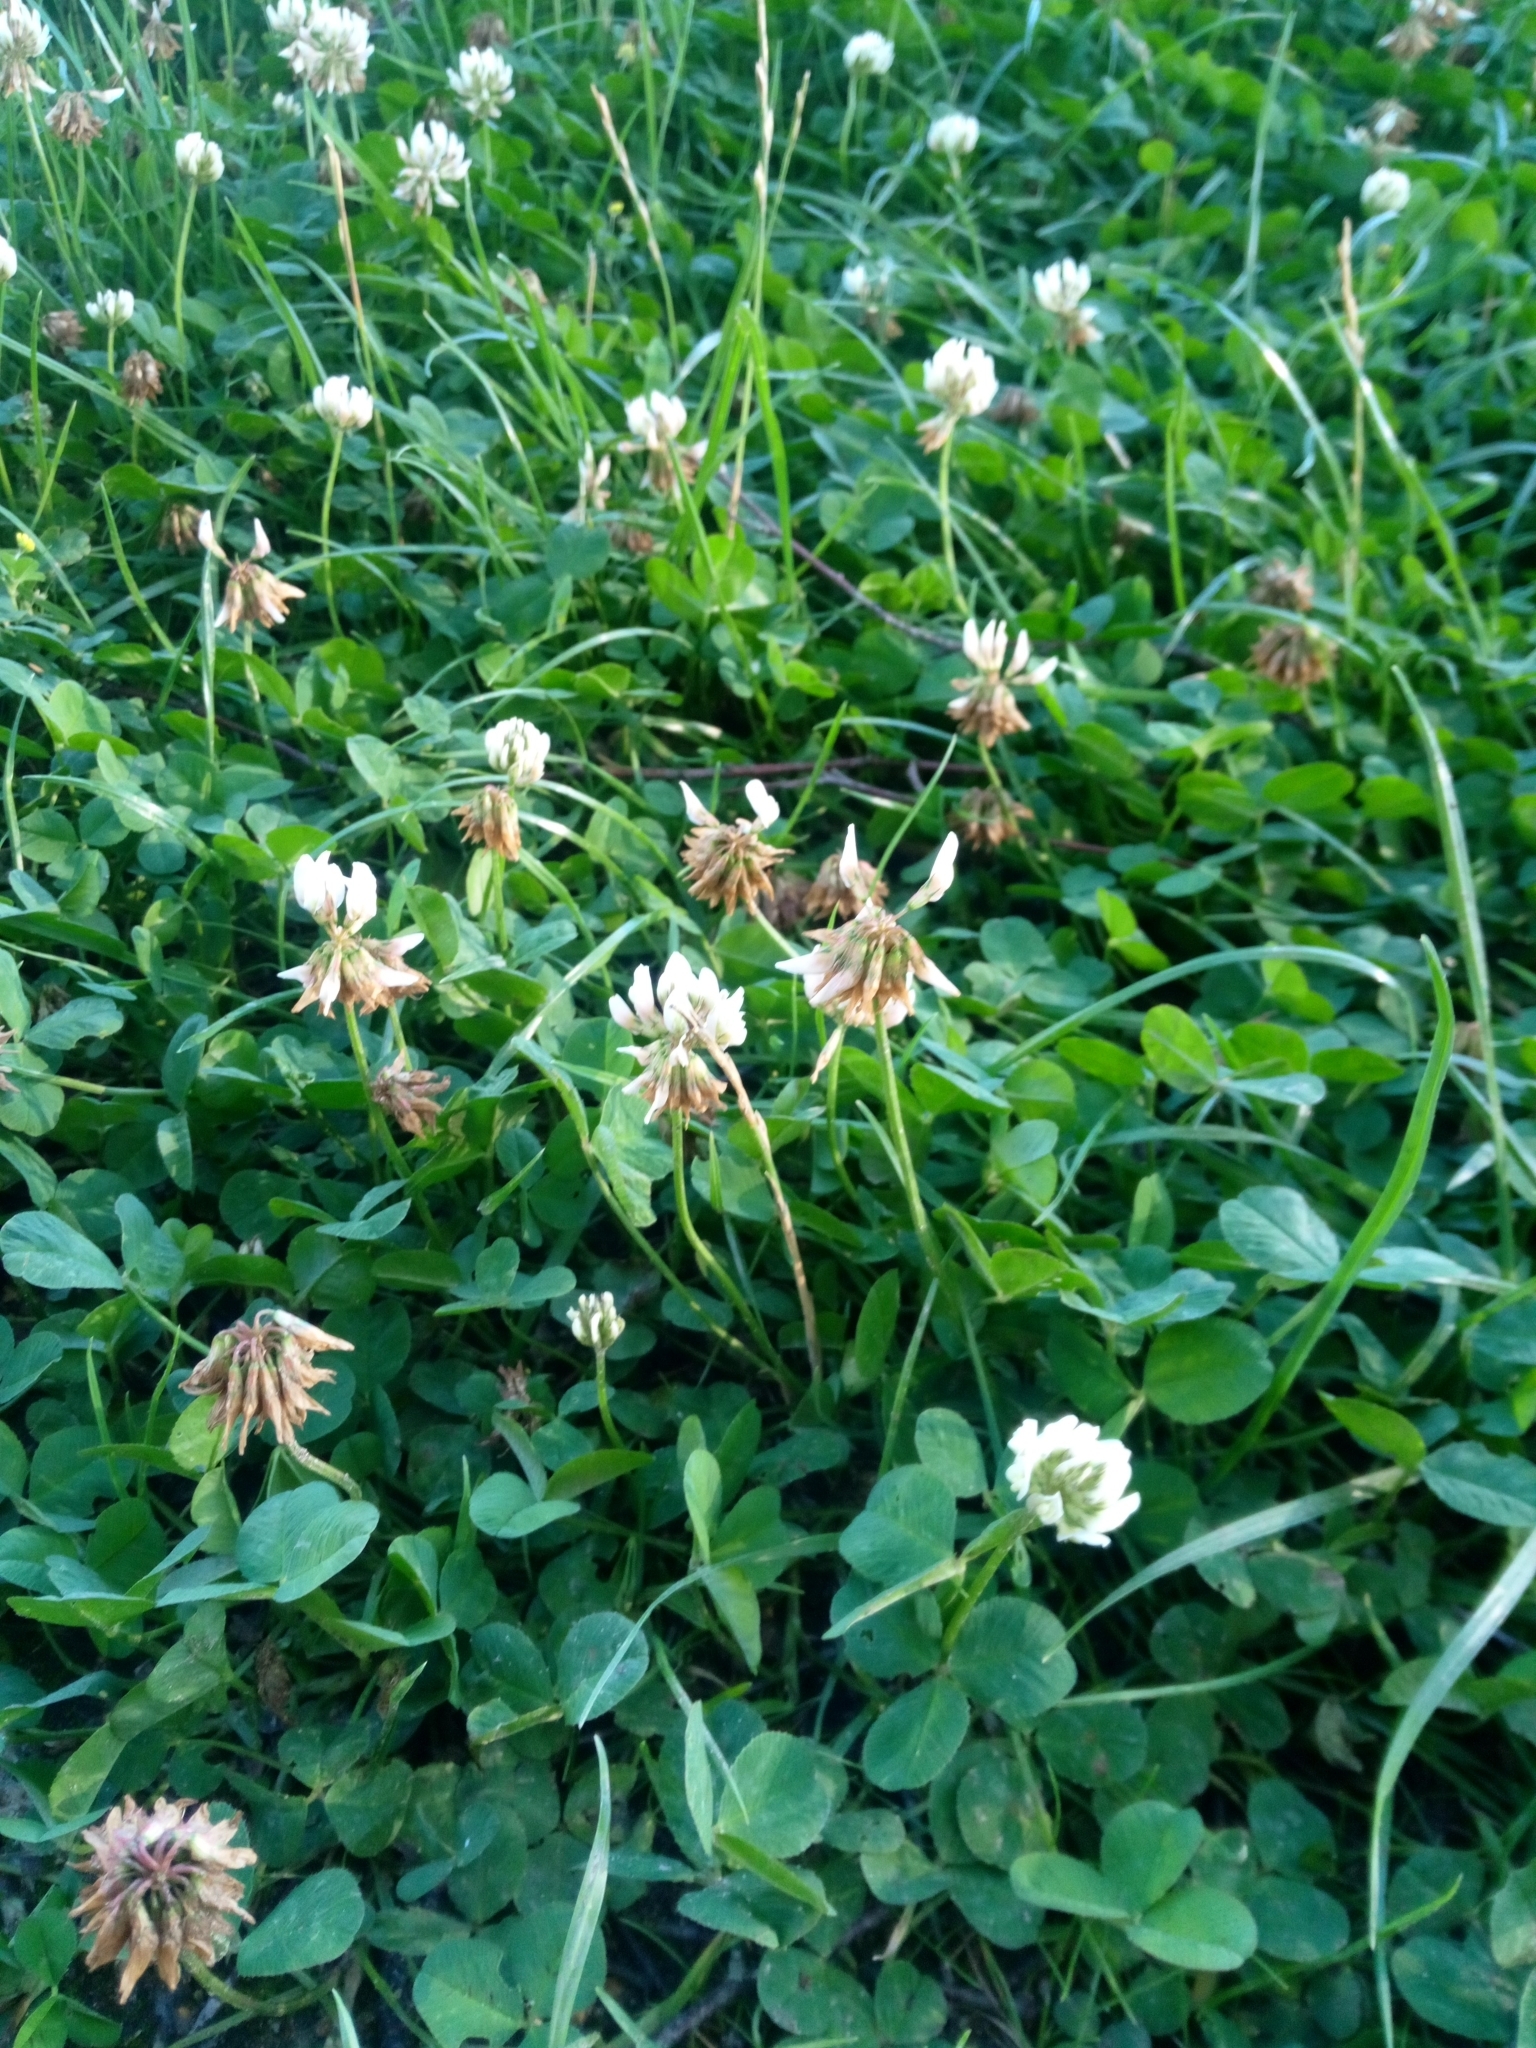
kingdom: Plantae
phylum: Tracheophyta
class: Magnoliopsida
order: Fabales
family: Fabaceae
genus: Trifolium
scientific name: Trifolium repens
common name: White clover
